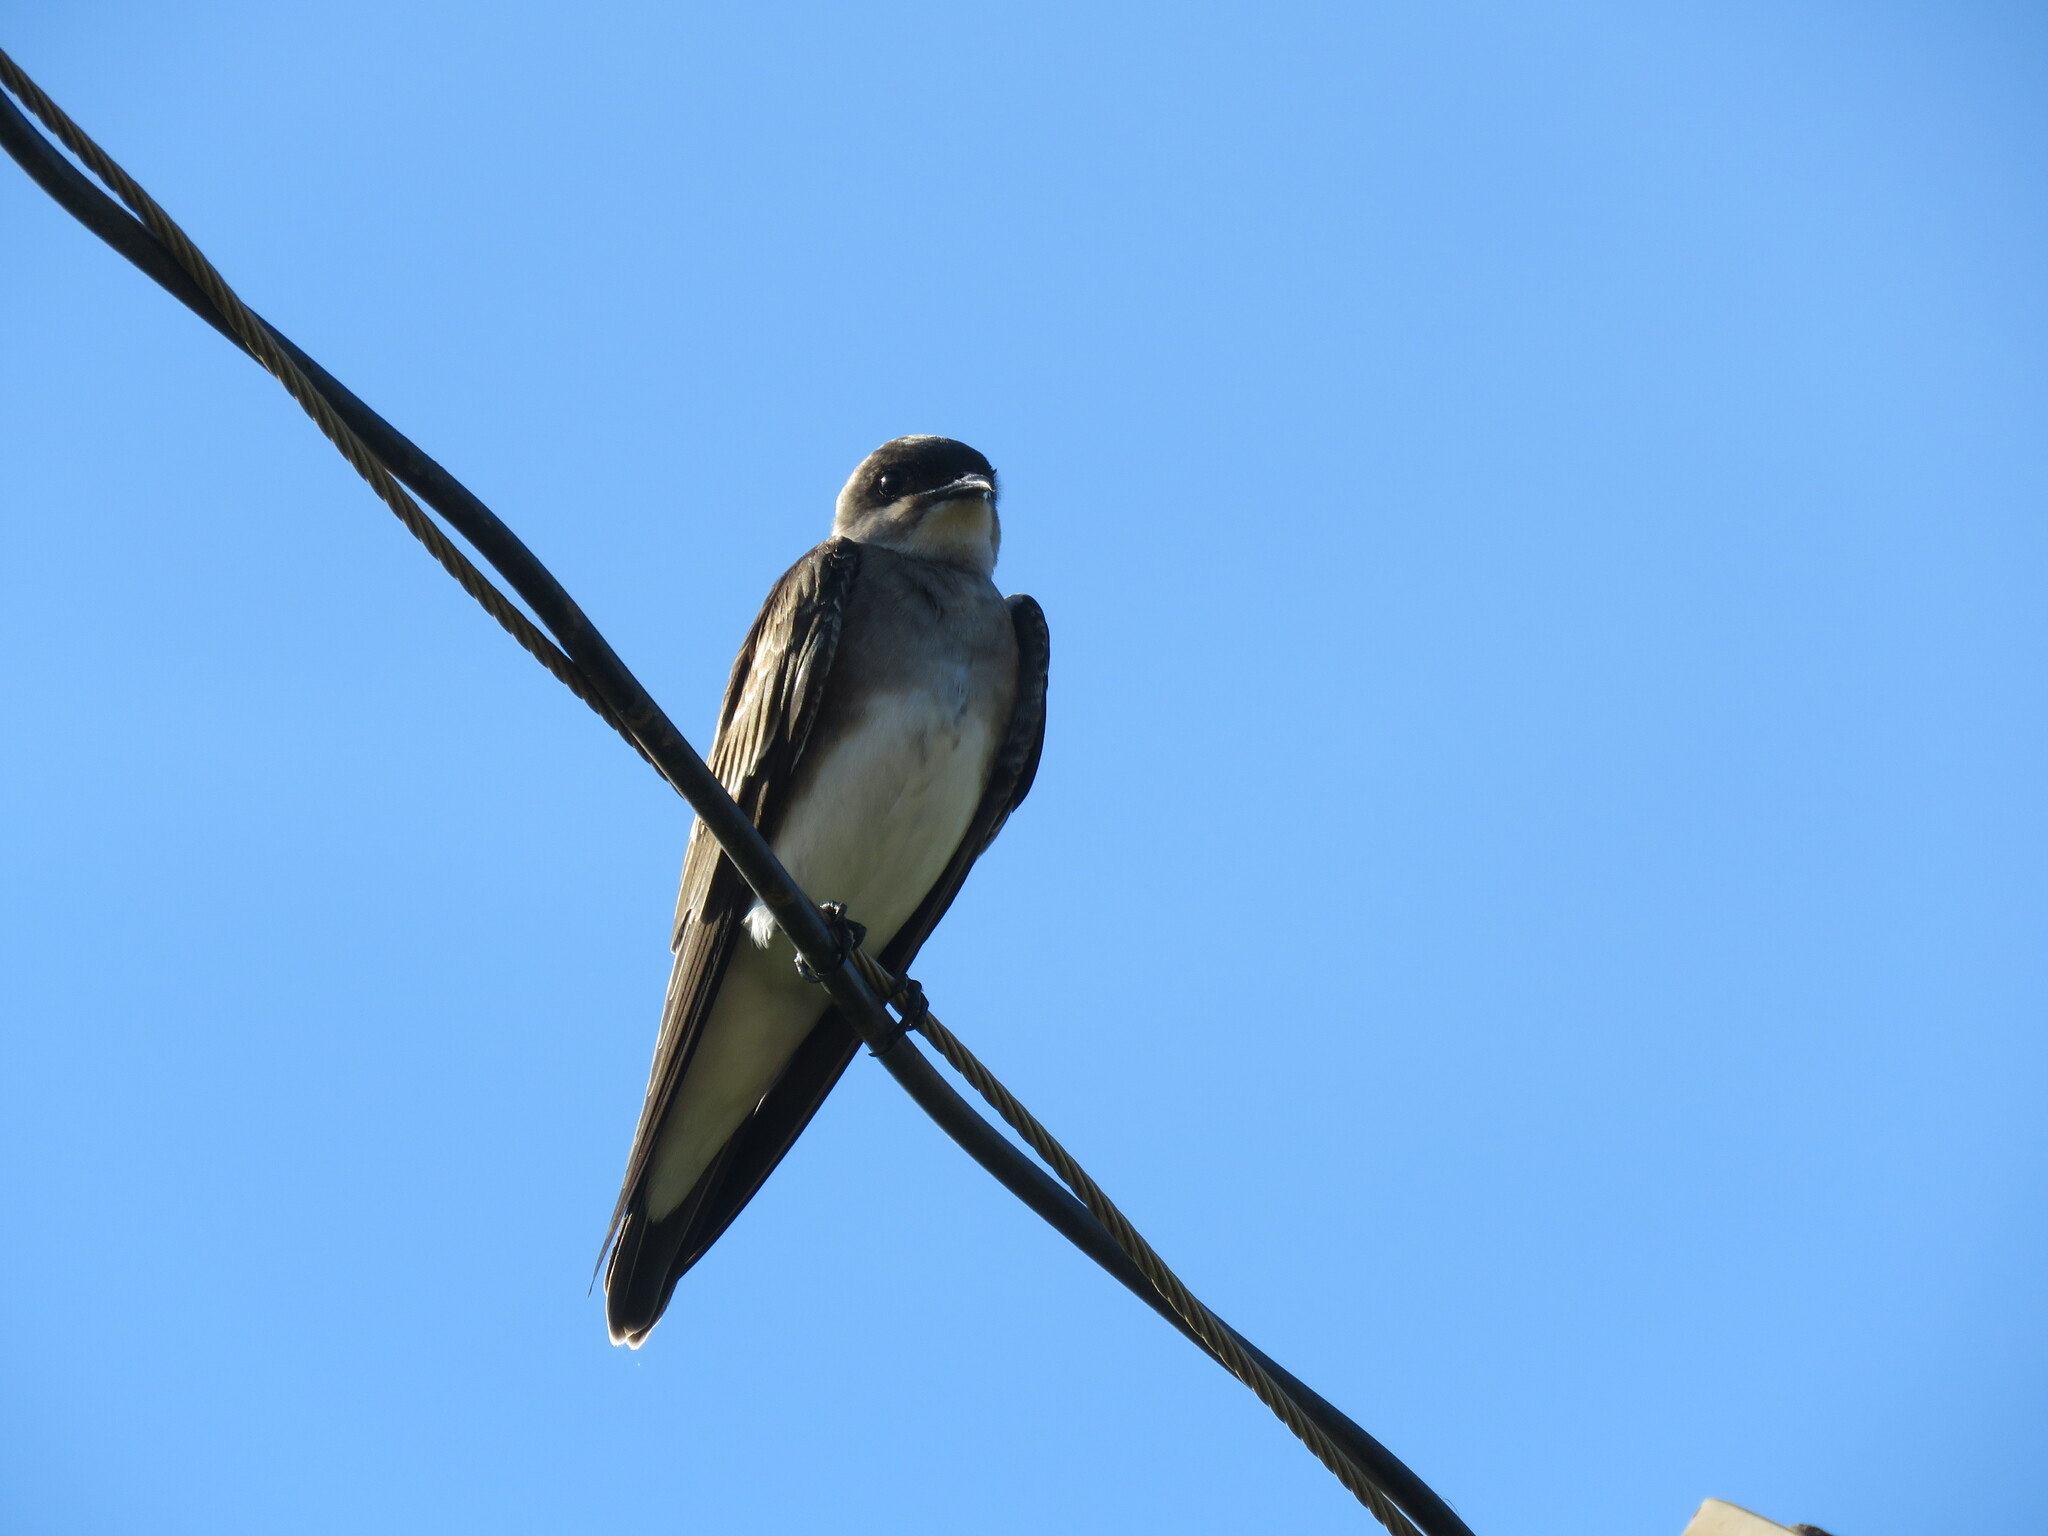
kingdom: Animalia
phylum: Chordata
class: Aves
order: Passeriformes
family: Hirundinidae
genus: Progne
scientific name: Progne tapera
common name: Brown-chested martin
